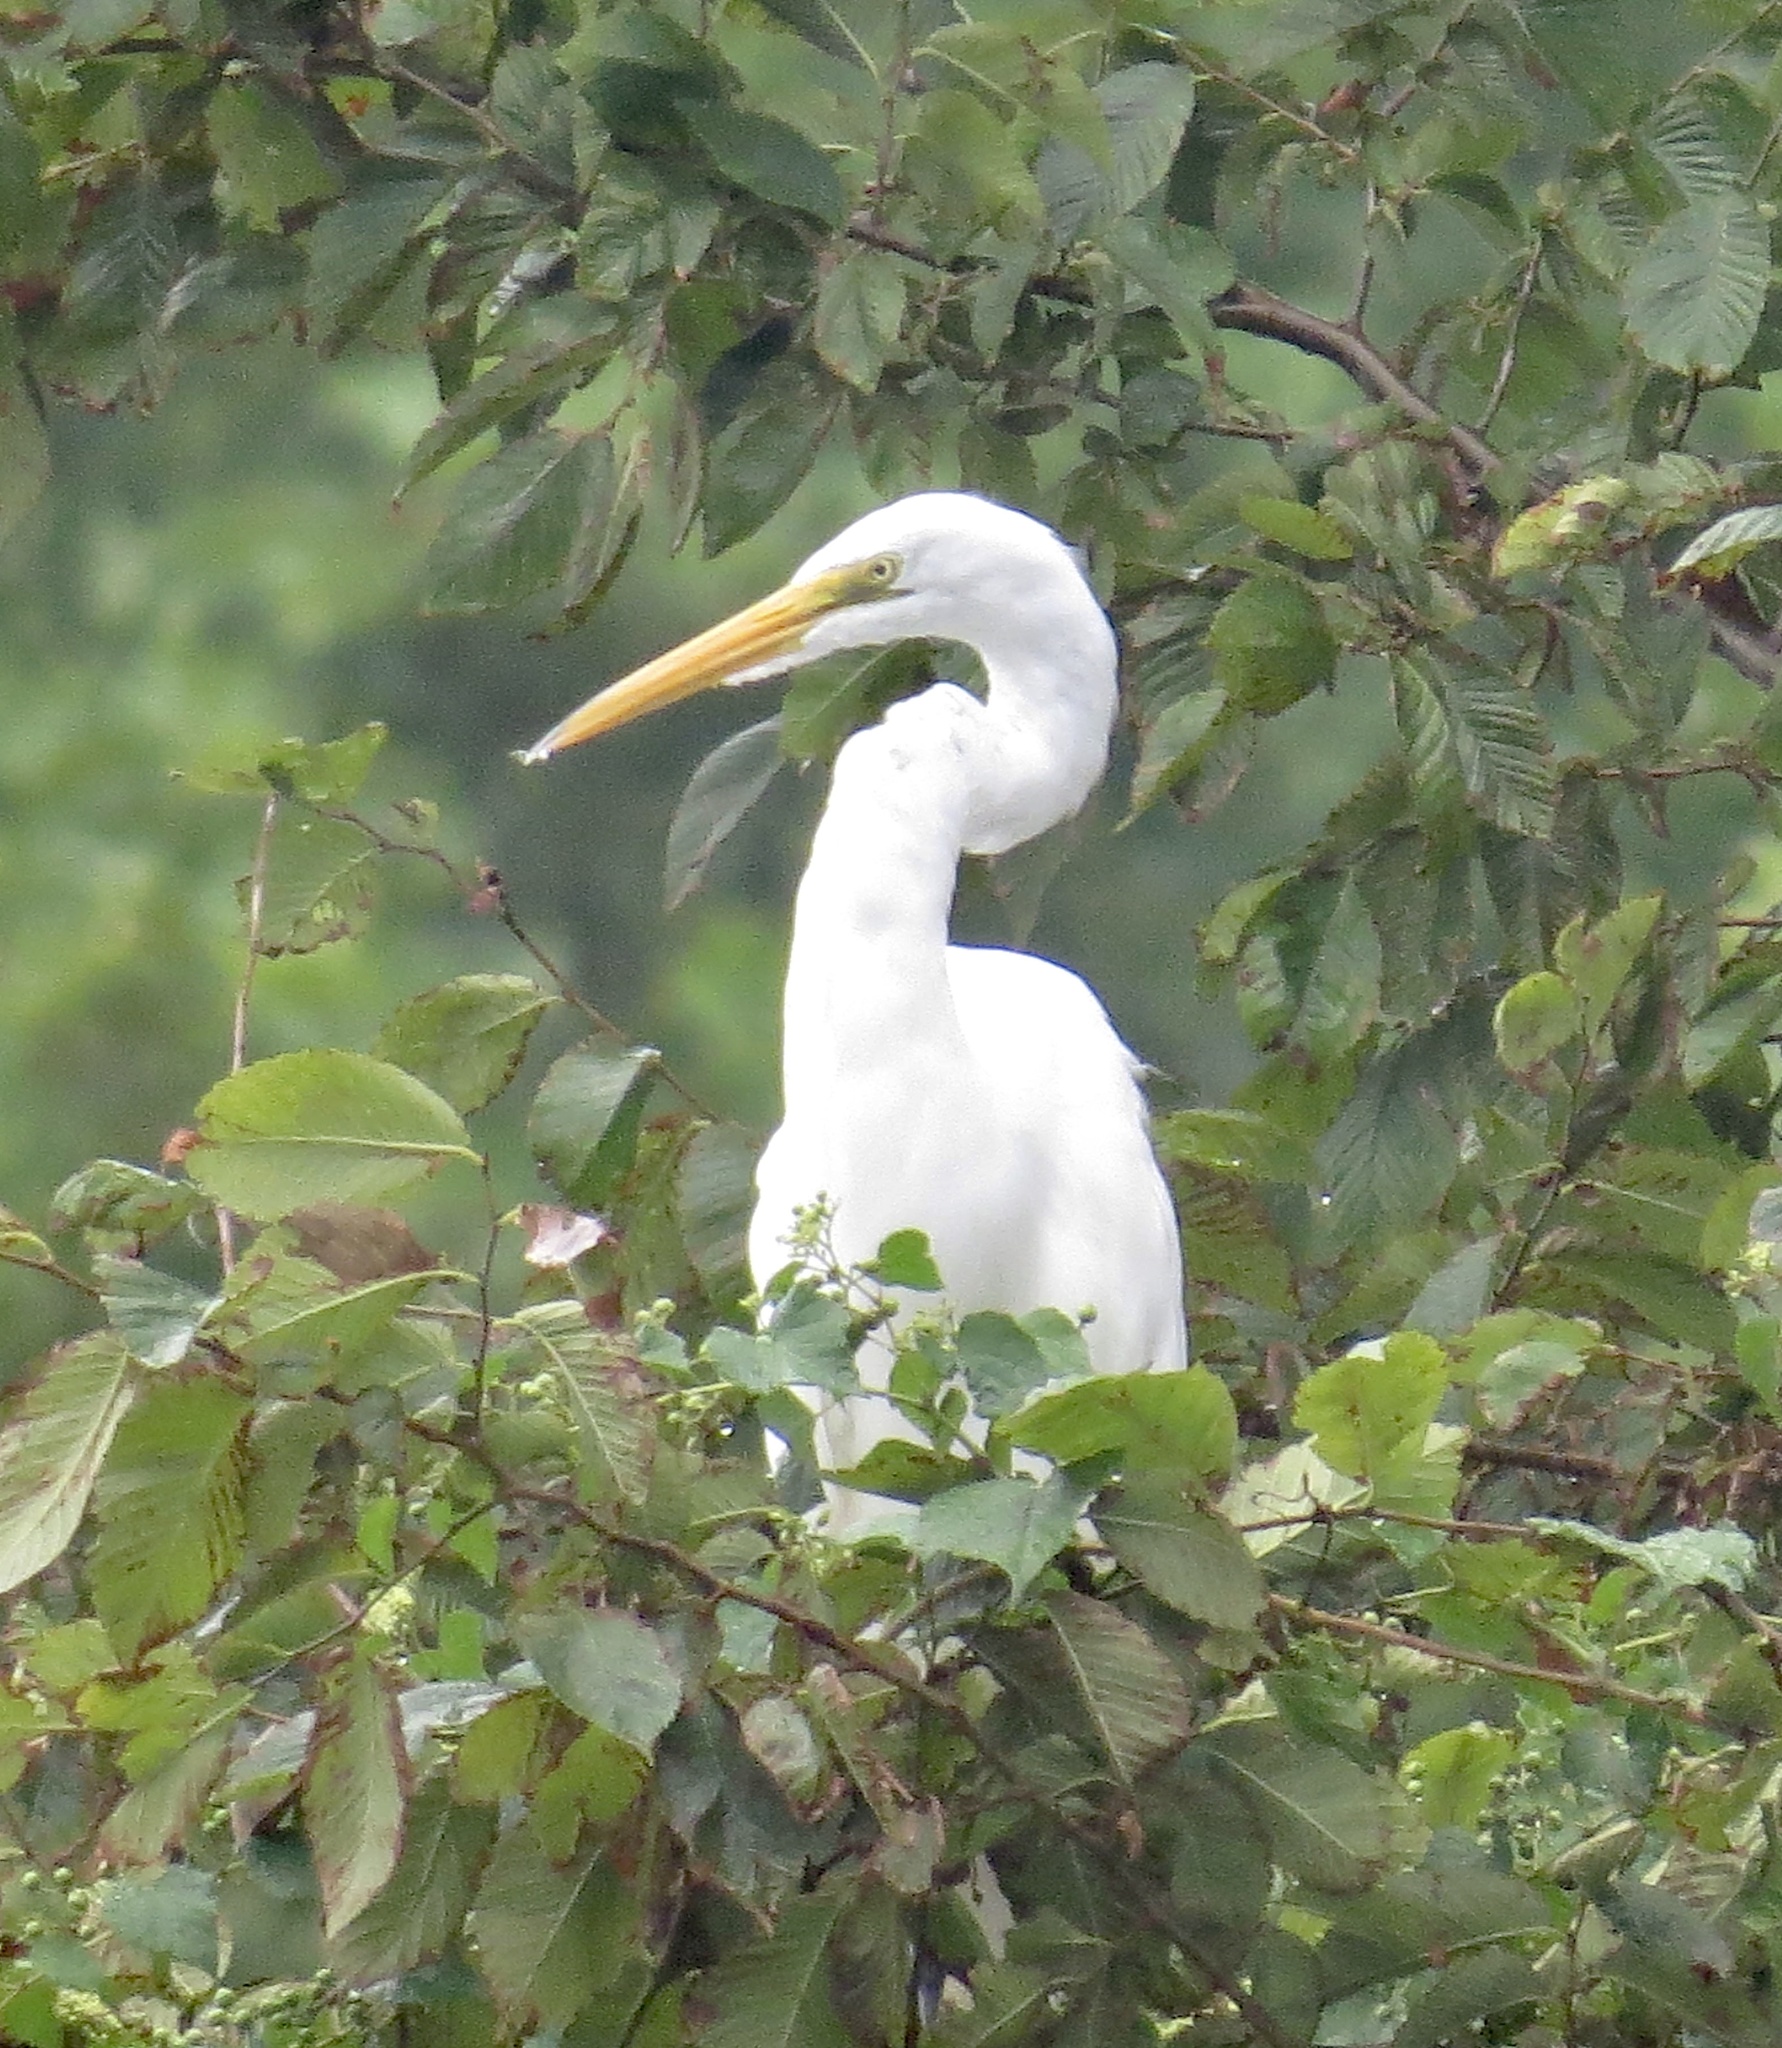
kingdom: Animalia
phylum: Chordata
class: Aves
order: Pelecaniformes
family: Ardeidae
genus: Ardea
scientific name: Ardea alba
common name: Great egret
